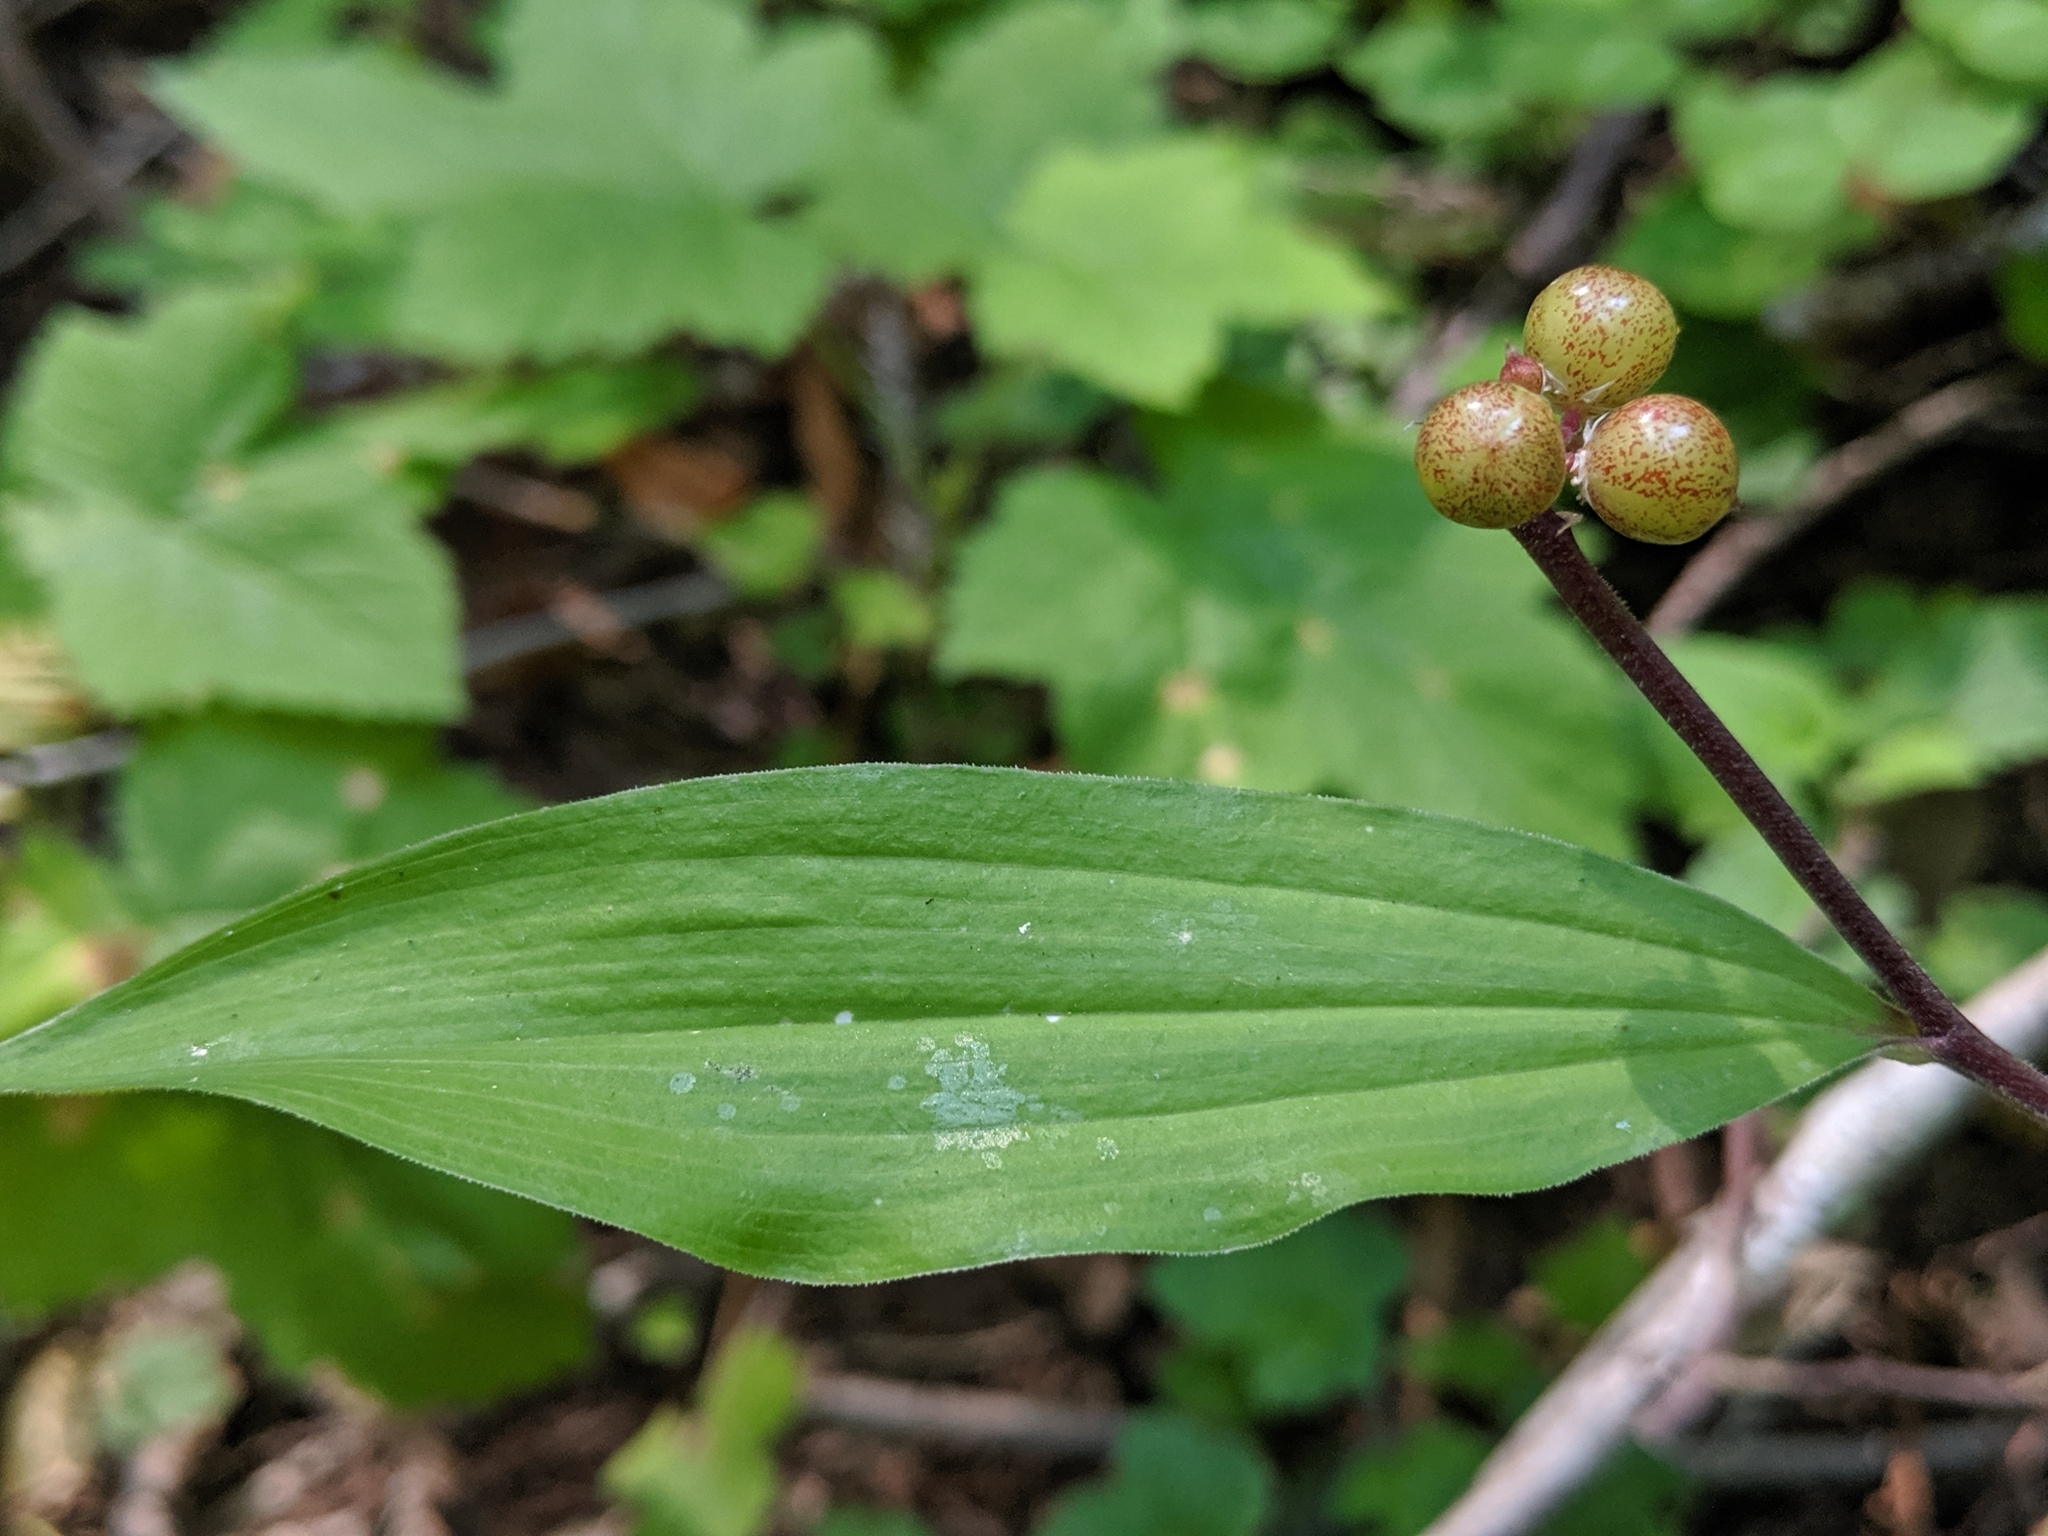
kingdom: Plantae
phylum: Tracheophyta
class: Liliopsida
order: Asparagales
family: Asparagaceae
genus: Maianthemum
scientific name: Maianthemum racemosum
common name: False spikenard
